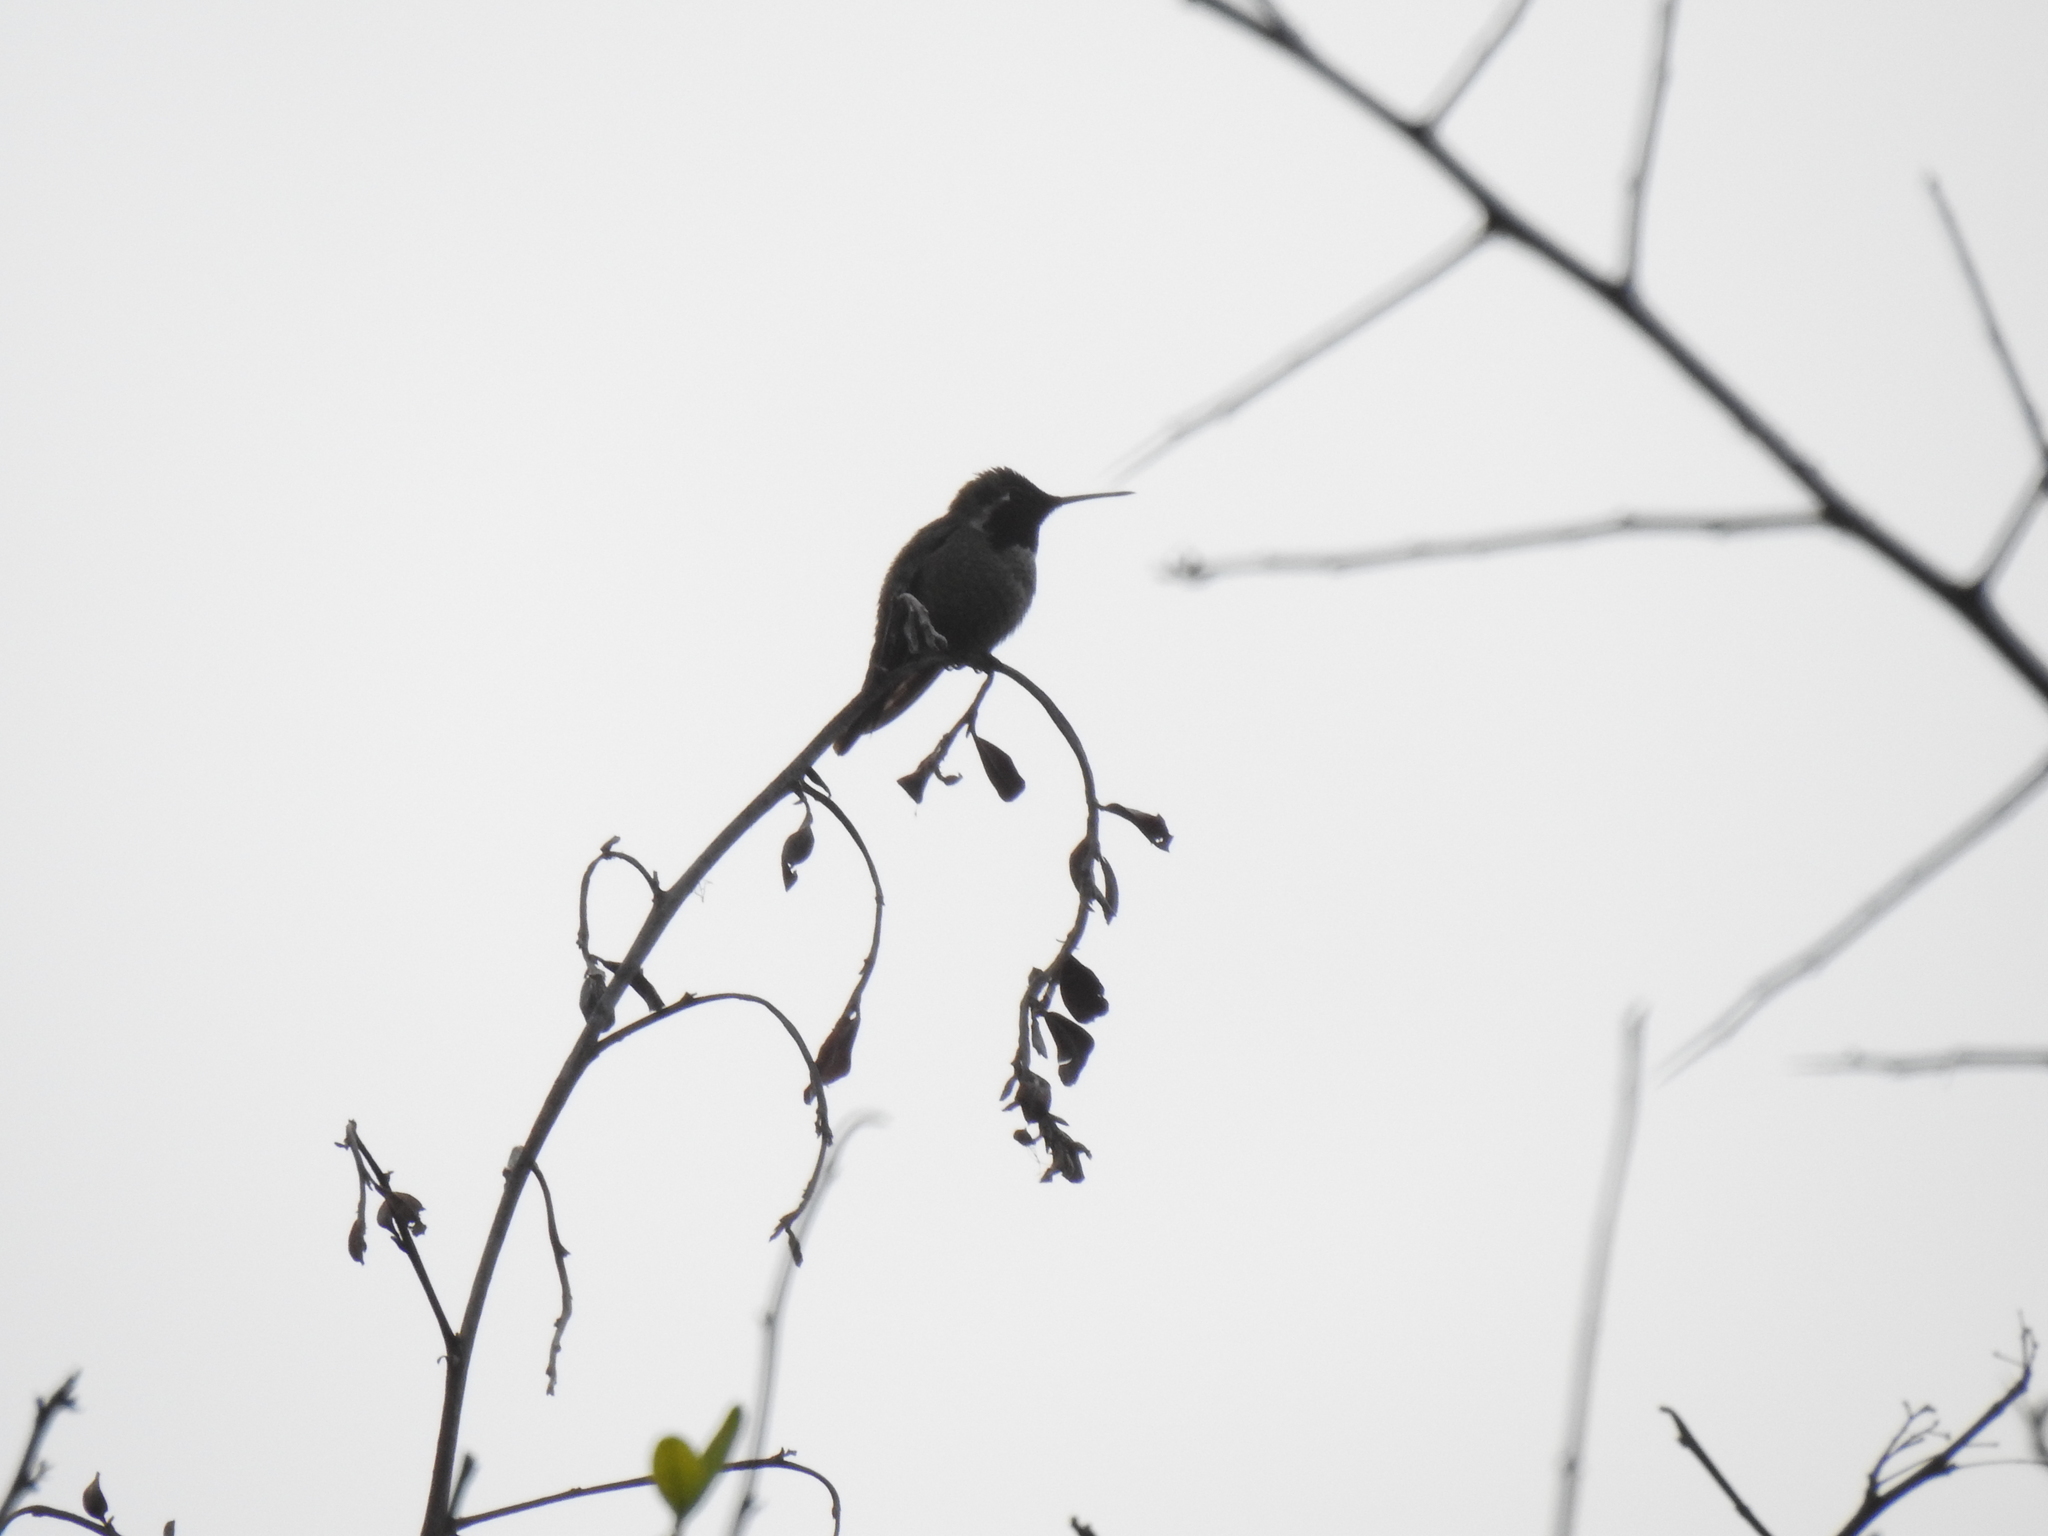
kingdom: Animalia
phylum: Chordata
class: Aves
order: Apodiformes
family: Trochilidae
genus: Calypte
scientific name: Calypte anna
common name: Anna's hummingbird
